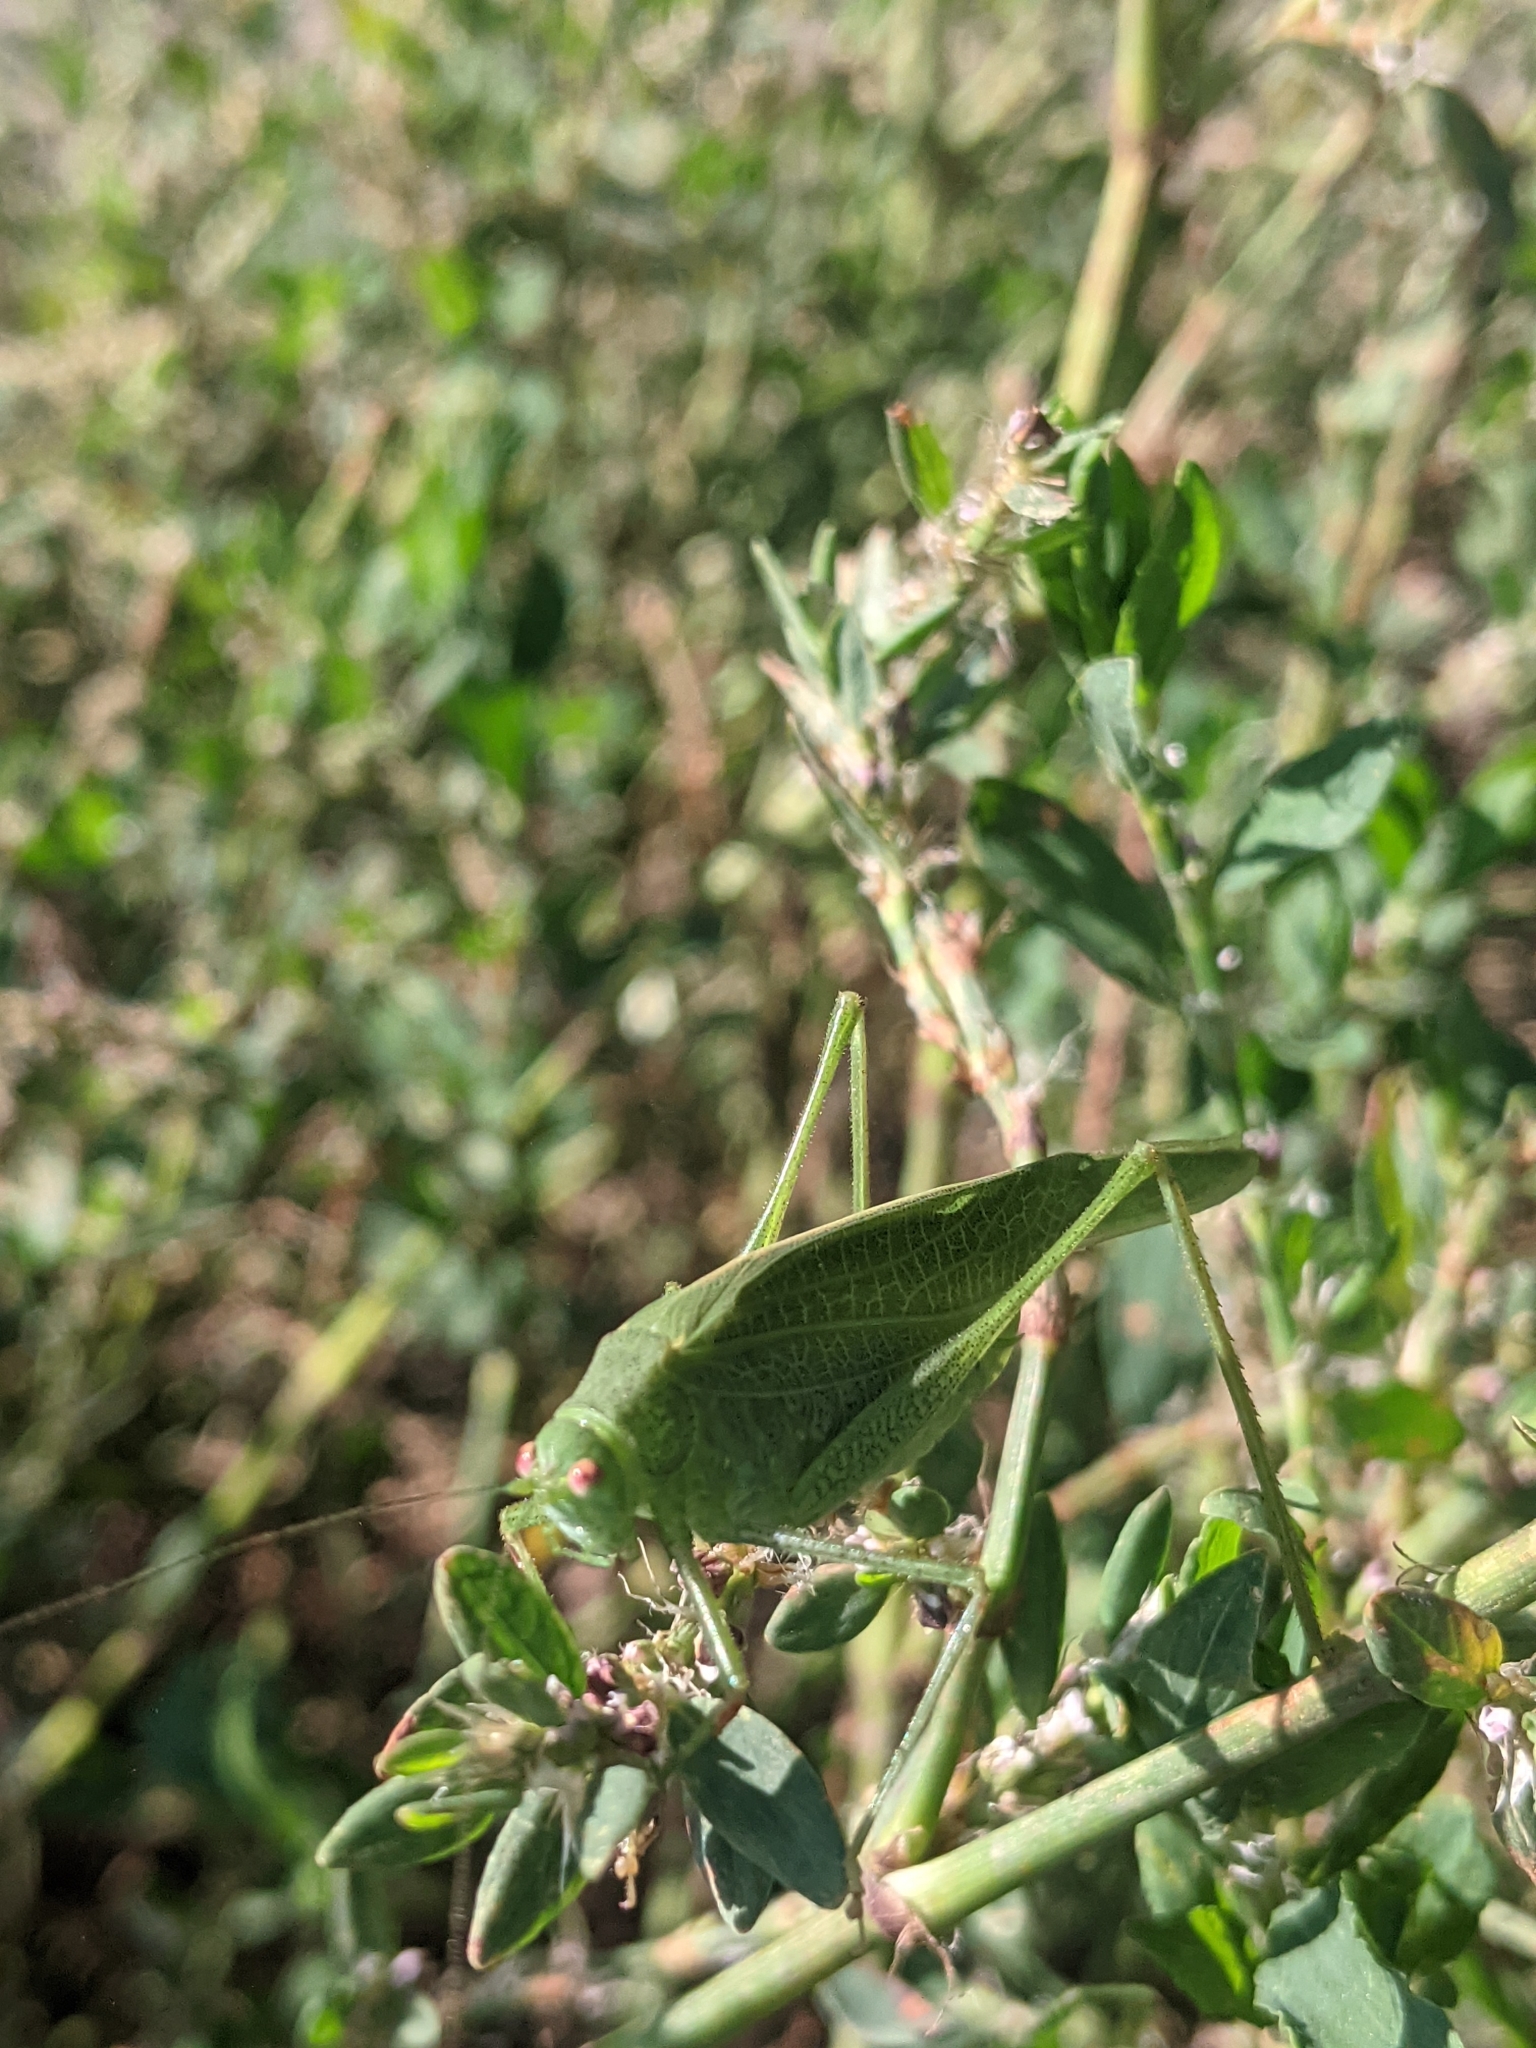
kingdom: Animalia
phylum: Arthropoda
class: Insecta
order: Orthoptera
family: Tettigoniidae
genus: Phaneroptera
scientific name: Phaneroptera nana
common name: Southern sickle bush-cricket
